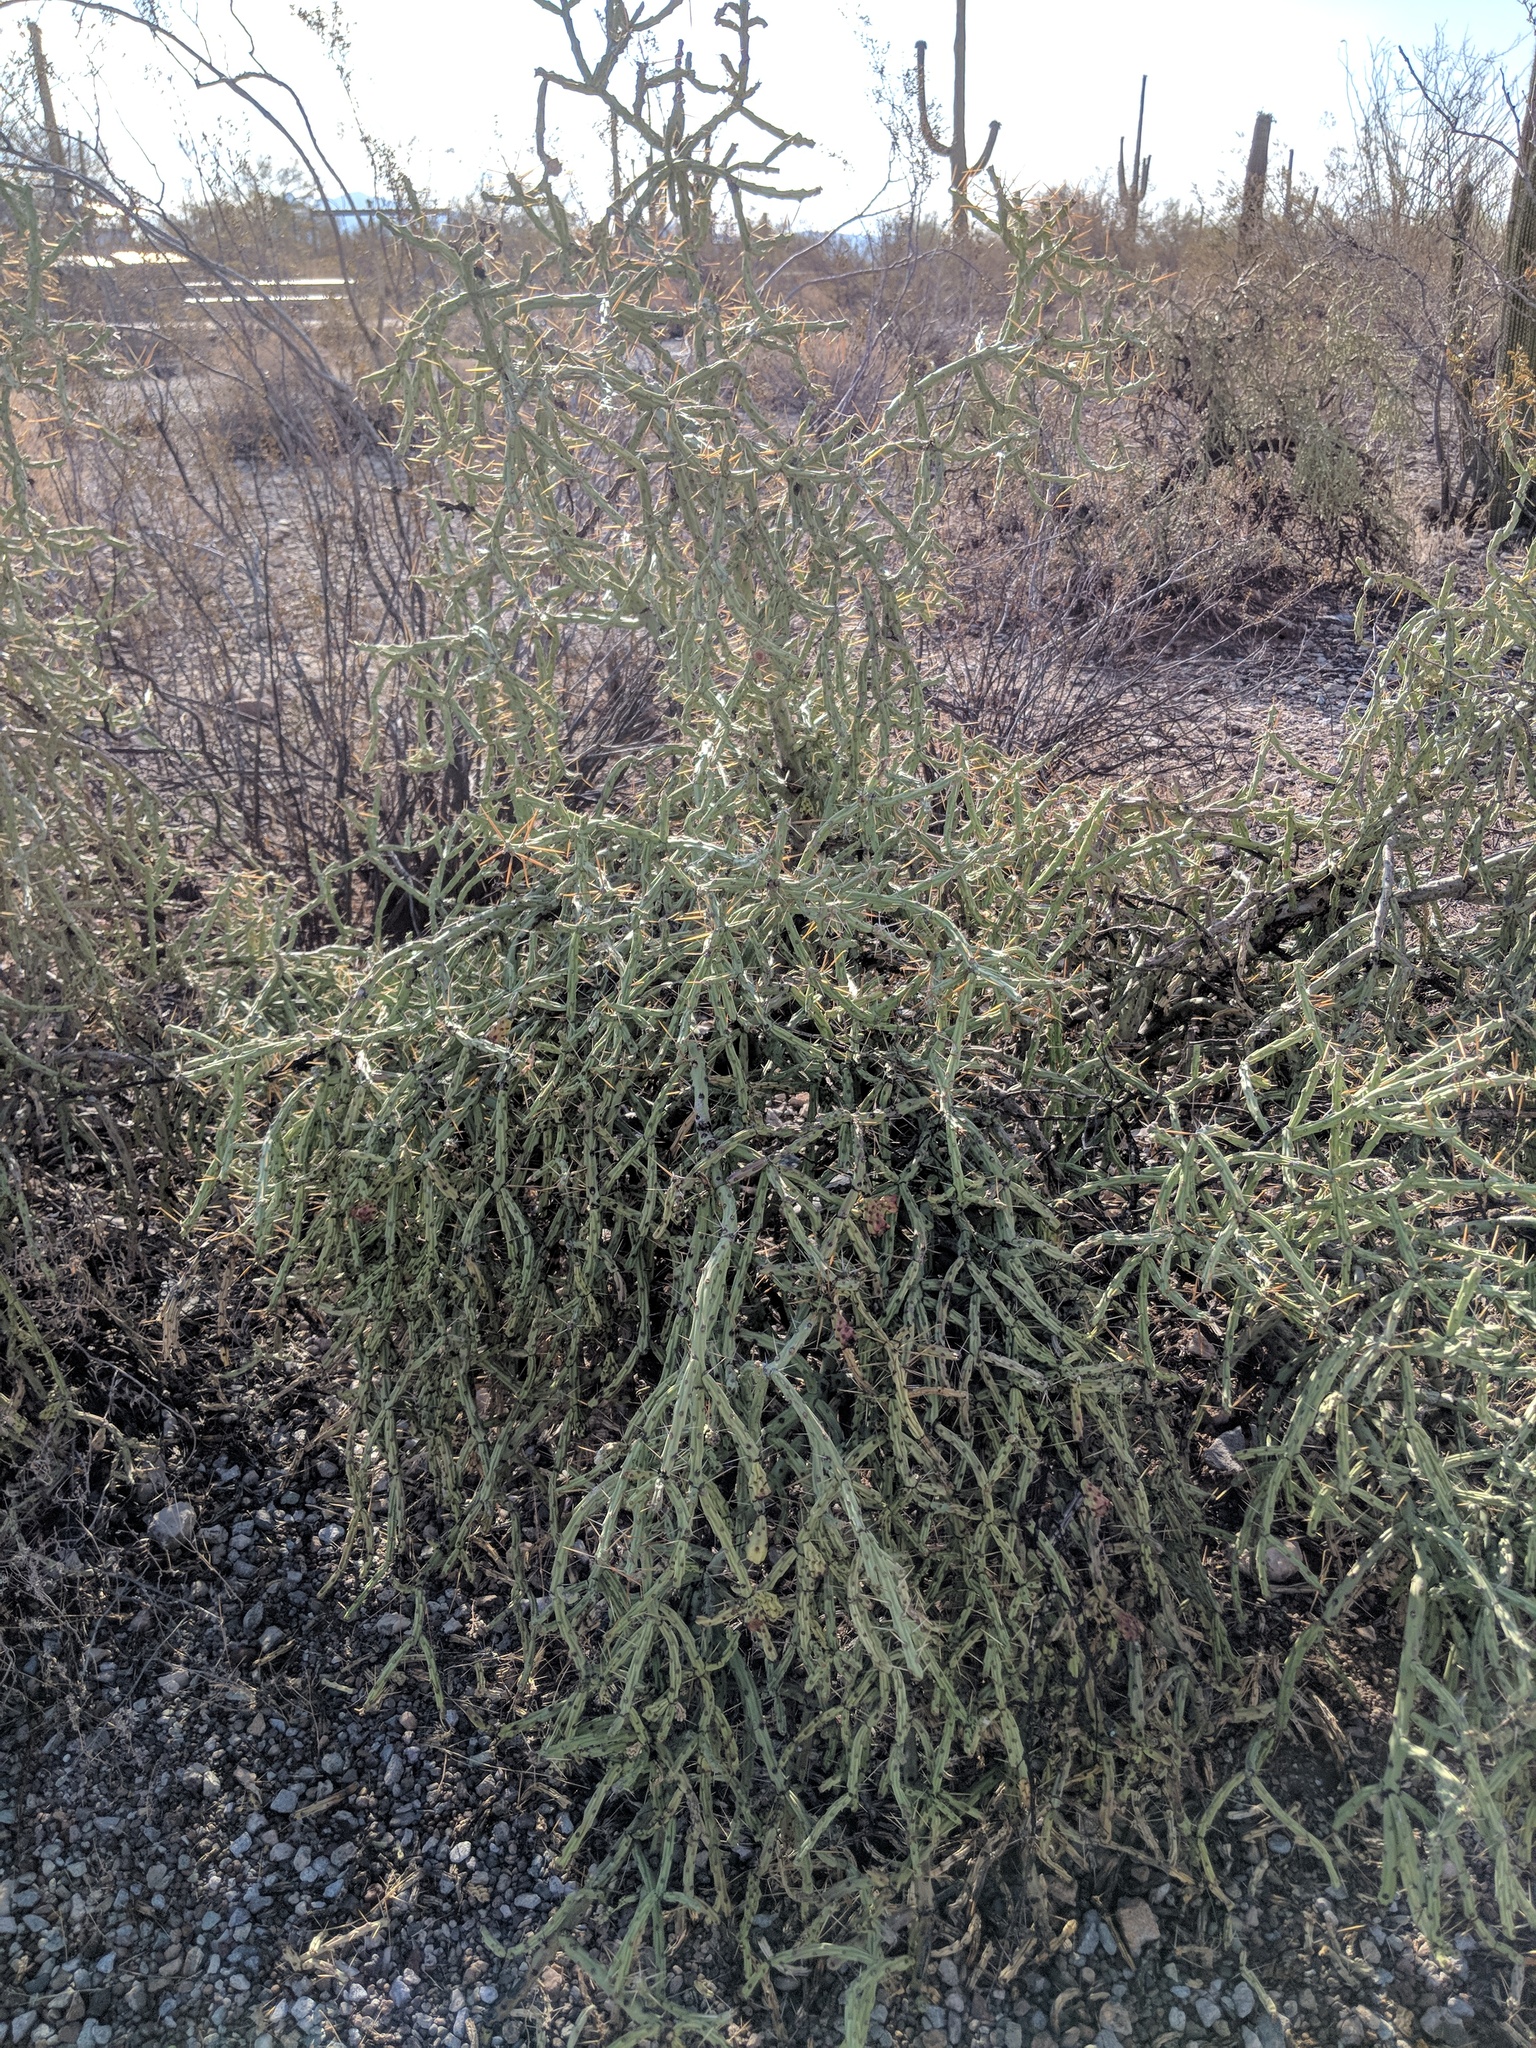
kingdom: Plantae
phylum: Tracheophyta
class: Magnoliopsida
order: Caryophyllales
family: Cactaceae
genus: Cylindropuntia
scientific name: Cylindropuntia arbuscula
